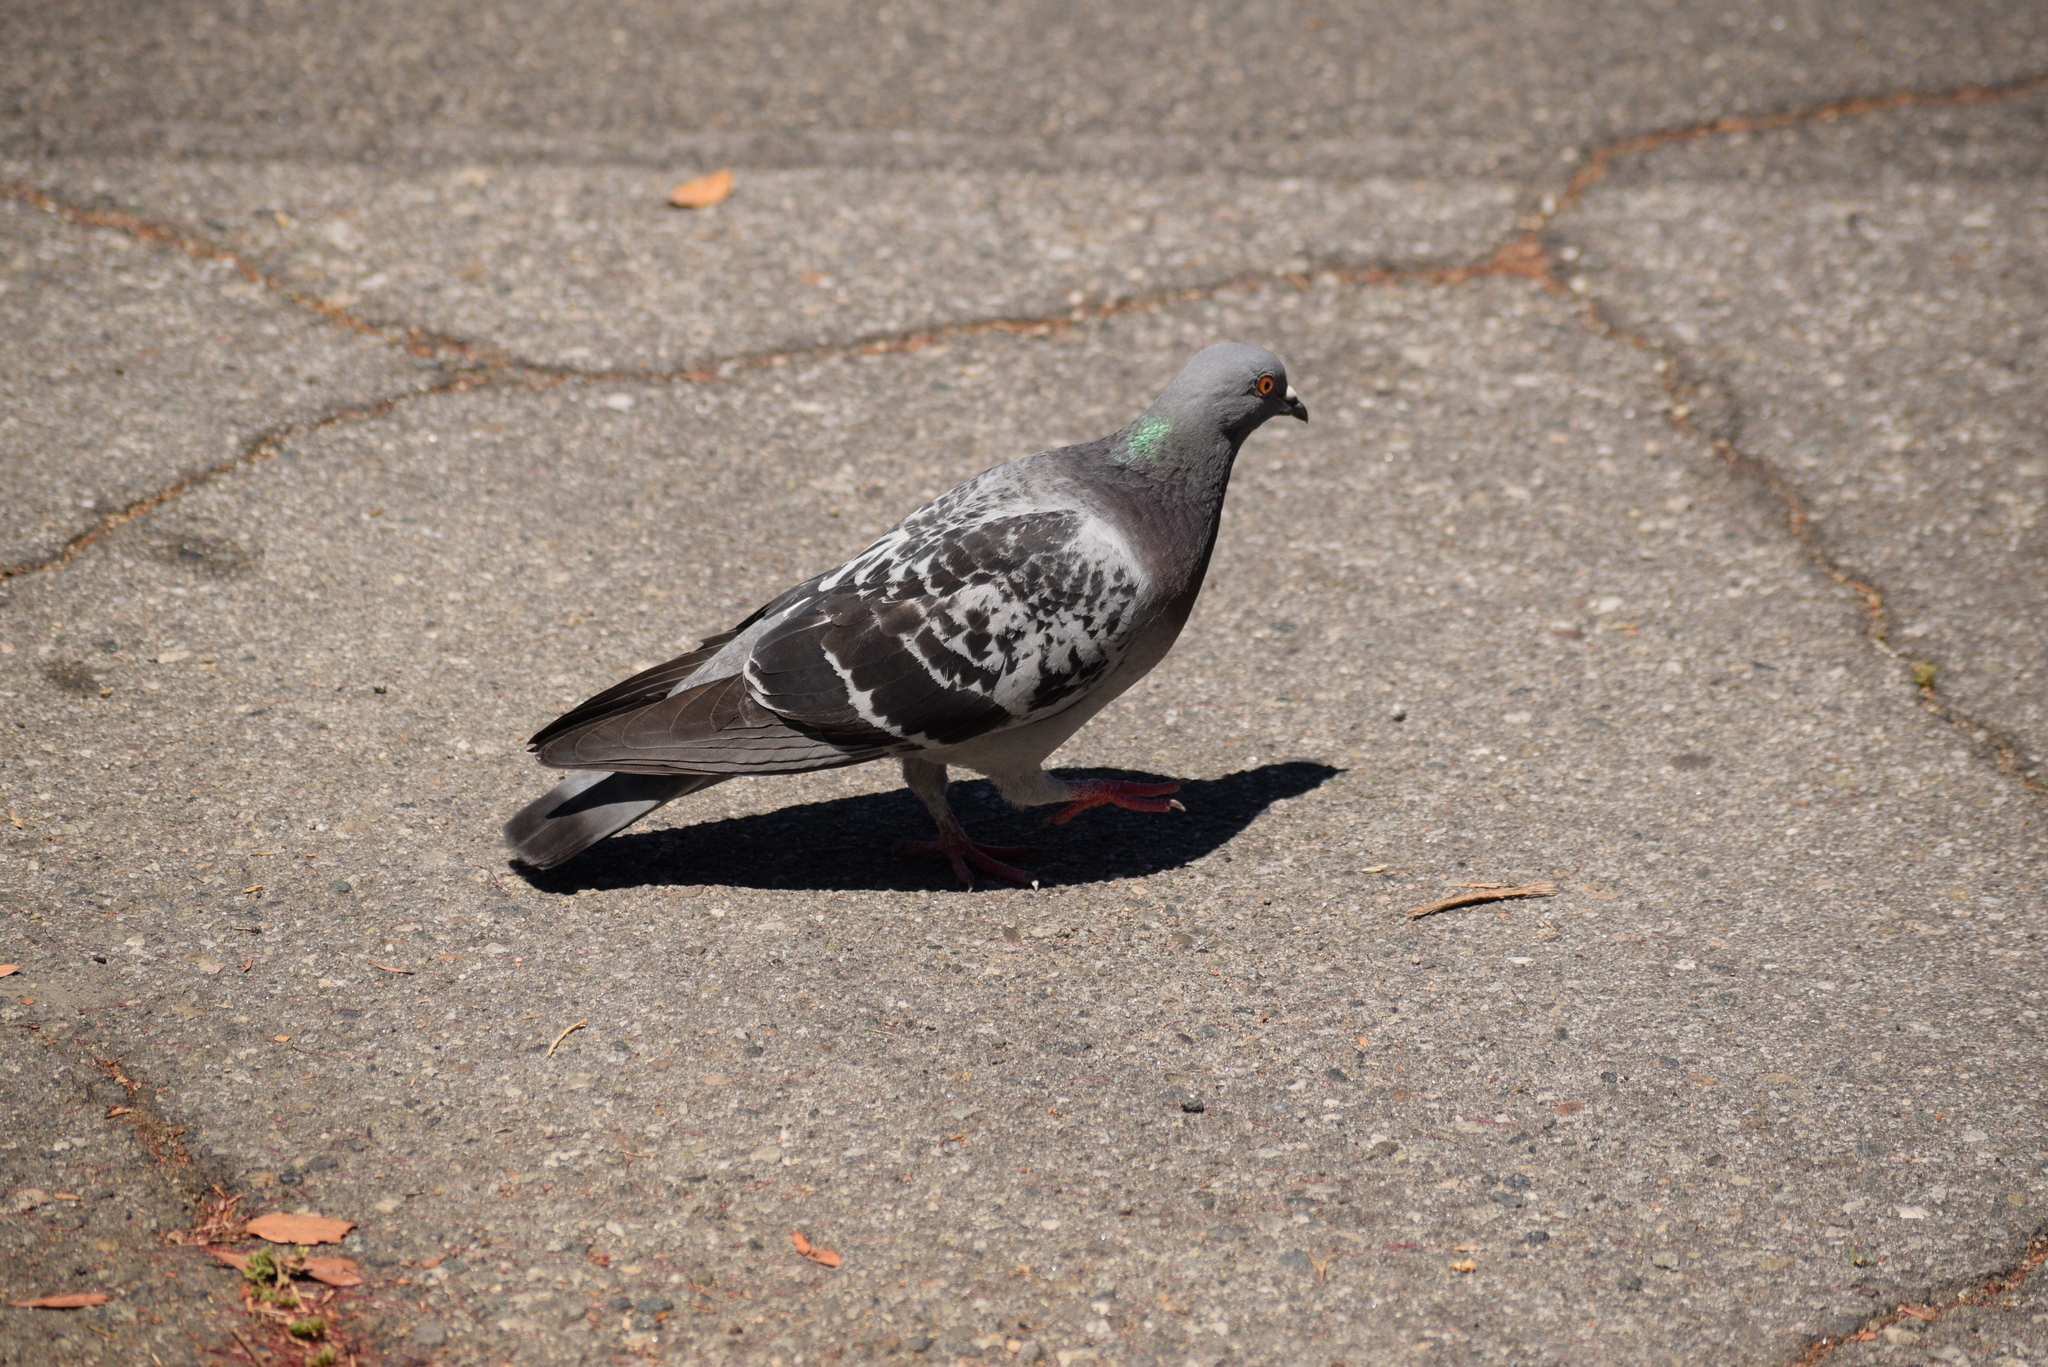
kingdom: Animalia
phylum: Chordata
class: Aves
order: Columbiformes
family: Columbidae
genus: Columba
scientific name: Columba livia
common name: Rock pigeon
